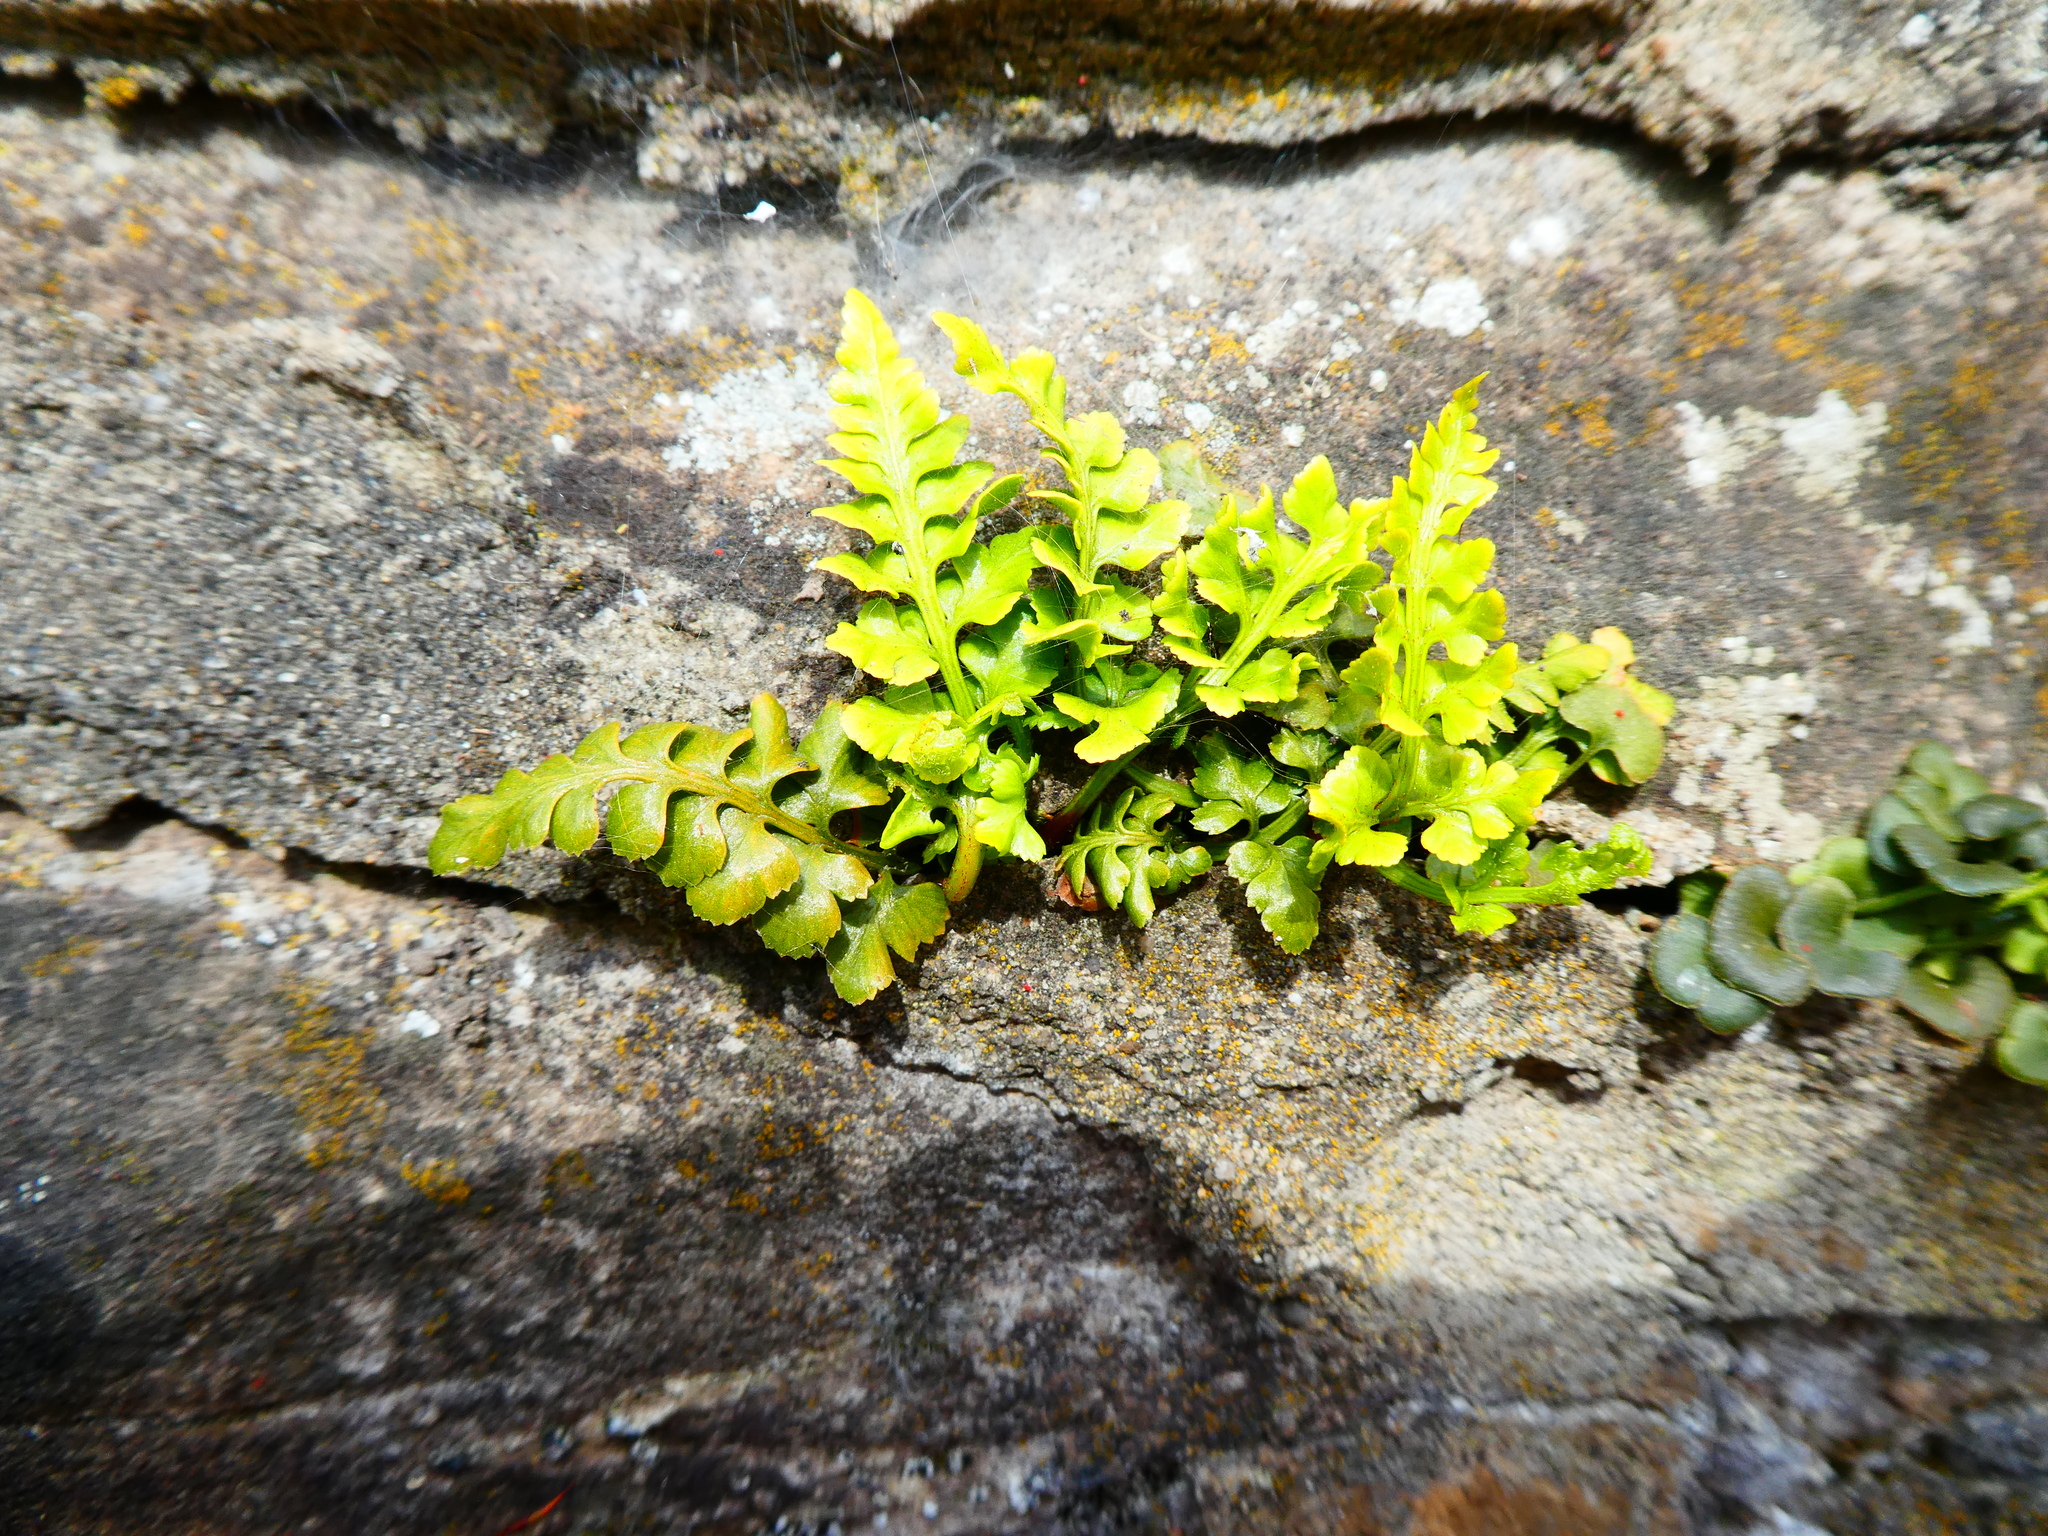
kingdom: Plantae
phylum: Tracheophyta
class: Polypodiopsida
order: Polypodiales
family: Aspleniaceae
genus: Asplenium
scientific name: Asplenium adiantum-nigrum
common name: Black spleenwort
